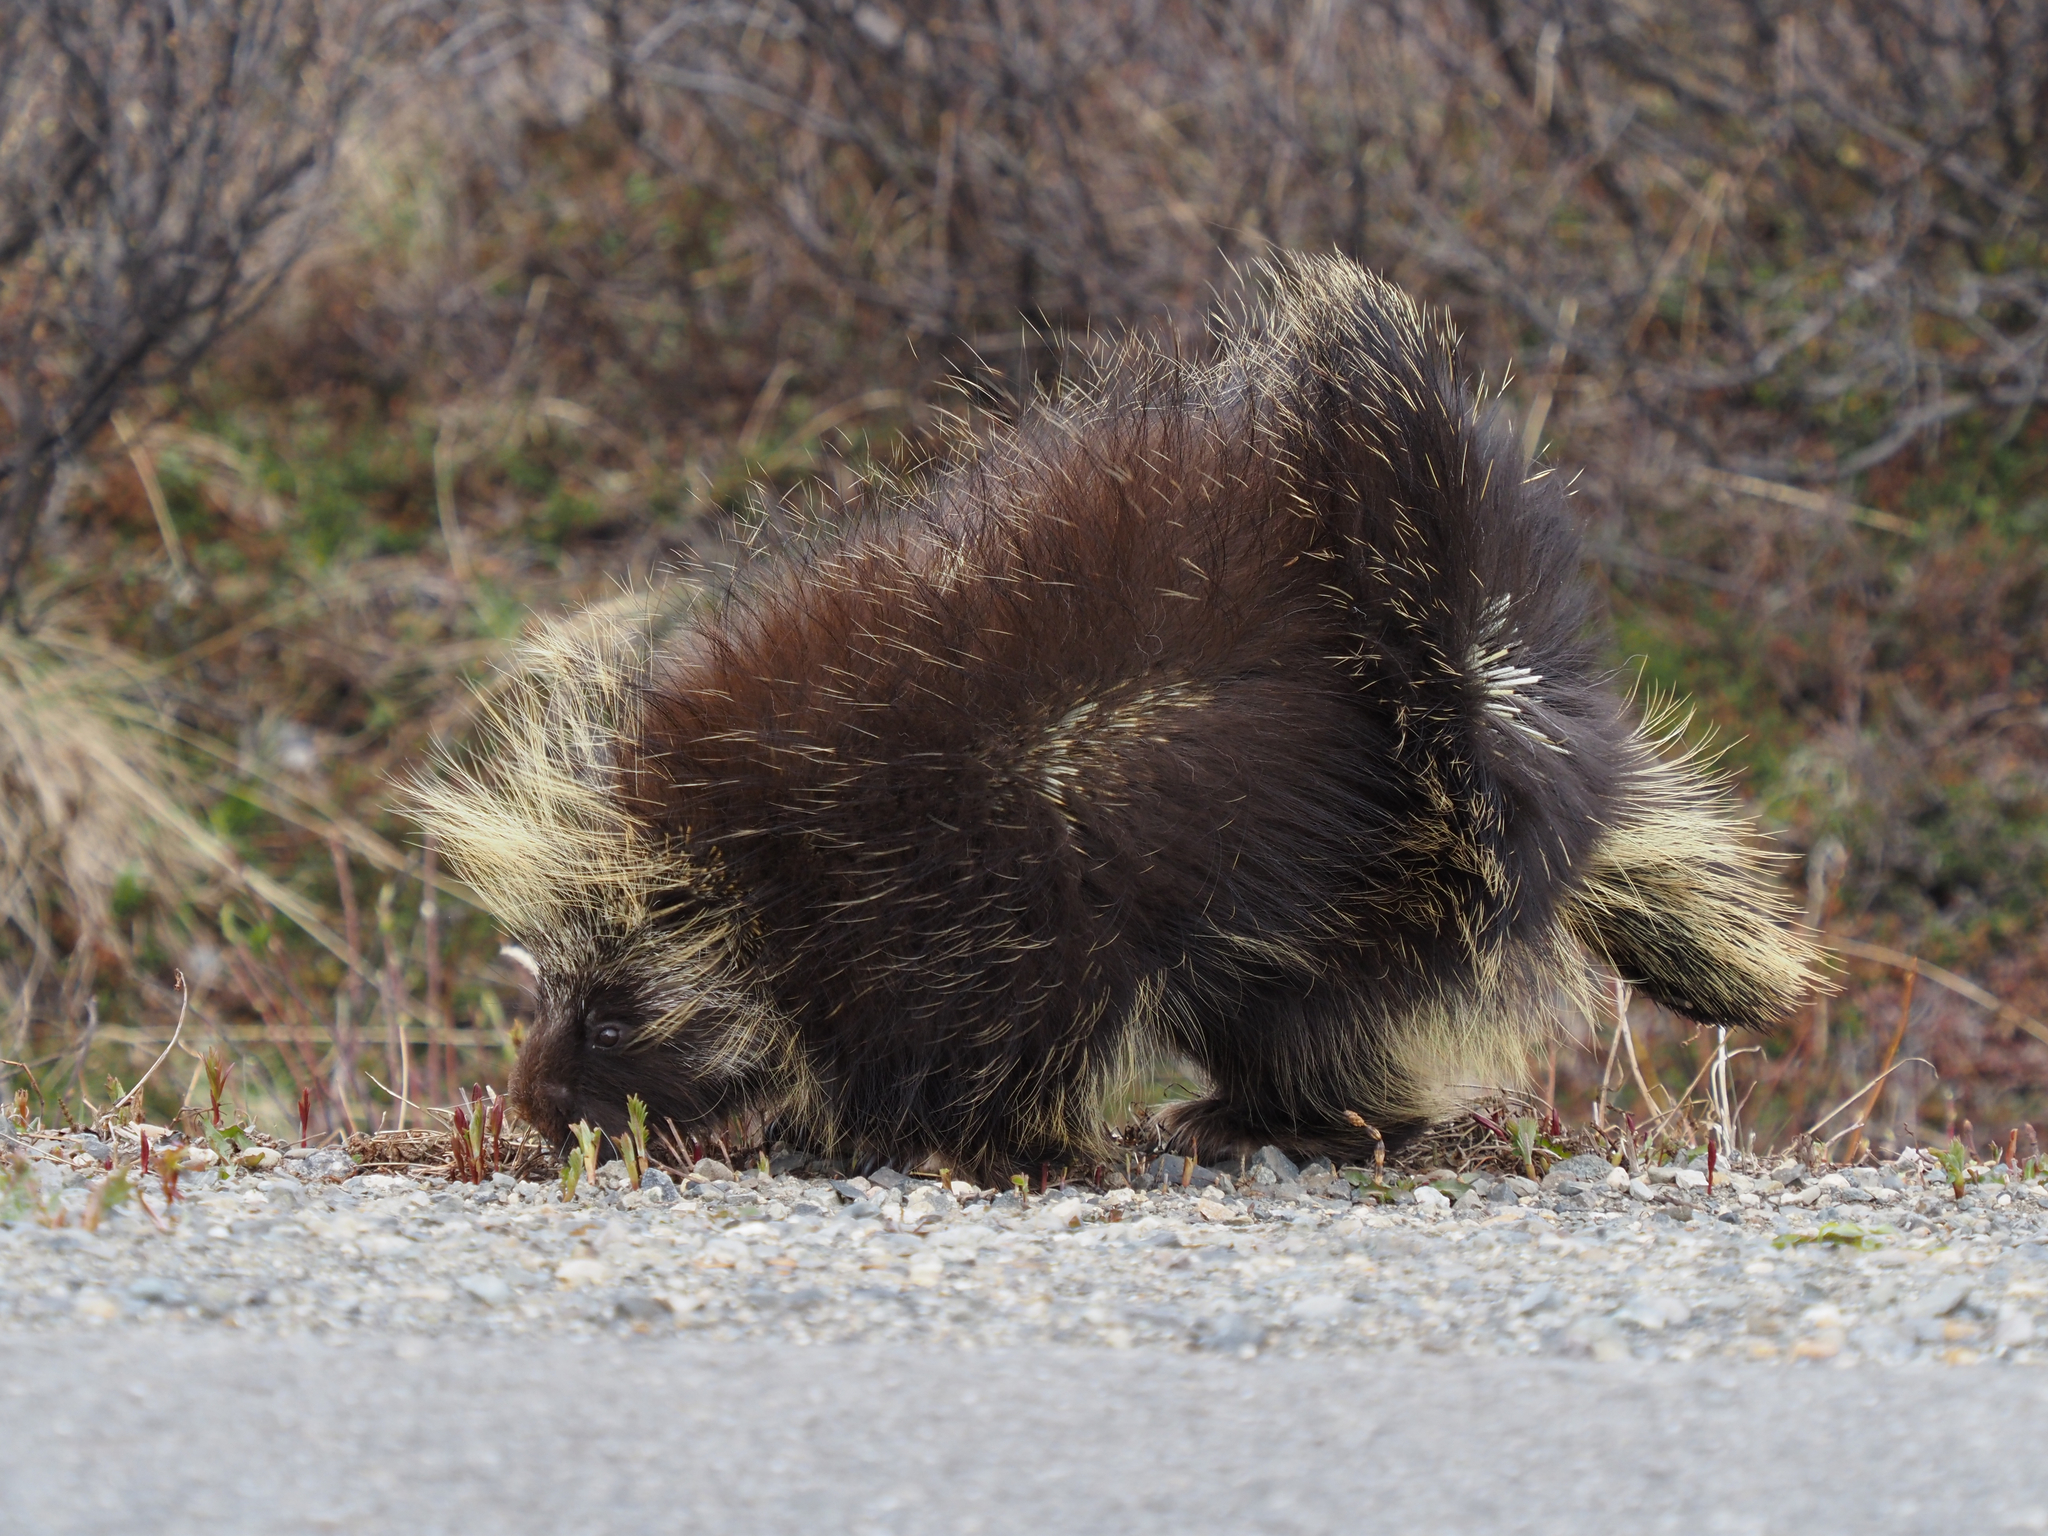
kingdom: Animalia
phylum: Chordata
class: Mammalia
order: Rodentia
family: Erethizontidae
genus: Erethizon
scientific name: Erethizon dorsatus
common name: North american porcupine
